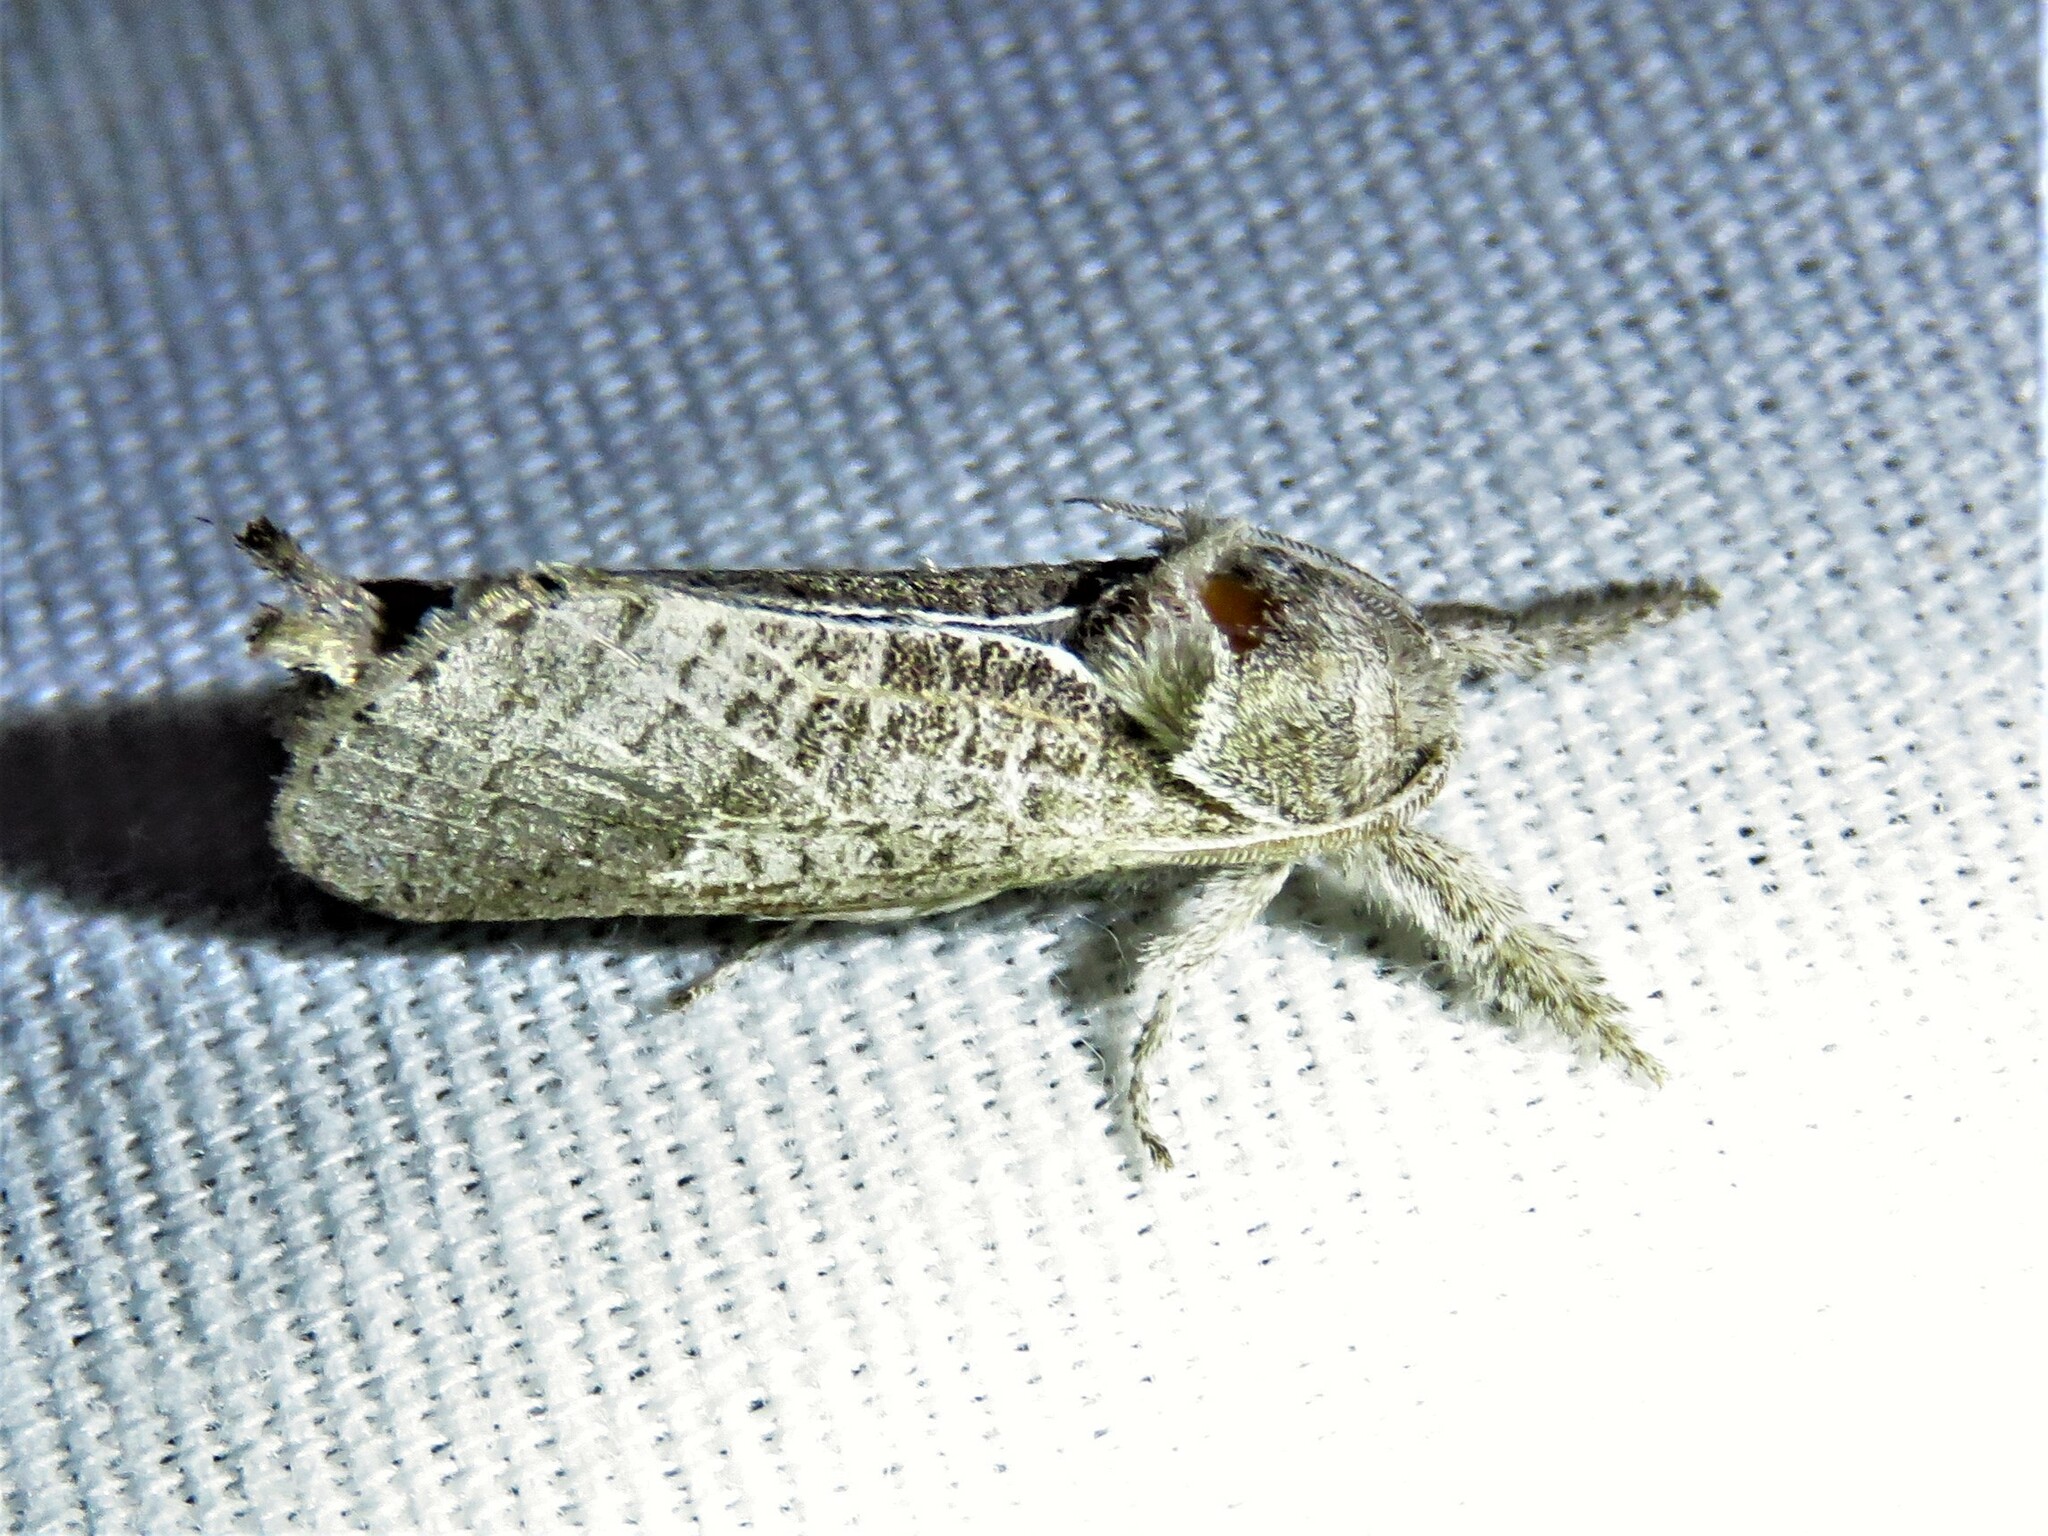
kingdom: Animalia
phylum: Arthropoda
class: Insecta
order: Lepidoptera
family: Cossidae
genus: Givira
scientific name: Givira anna
